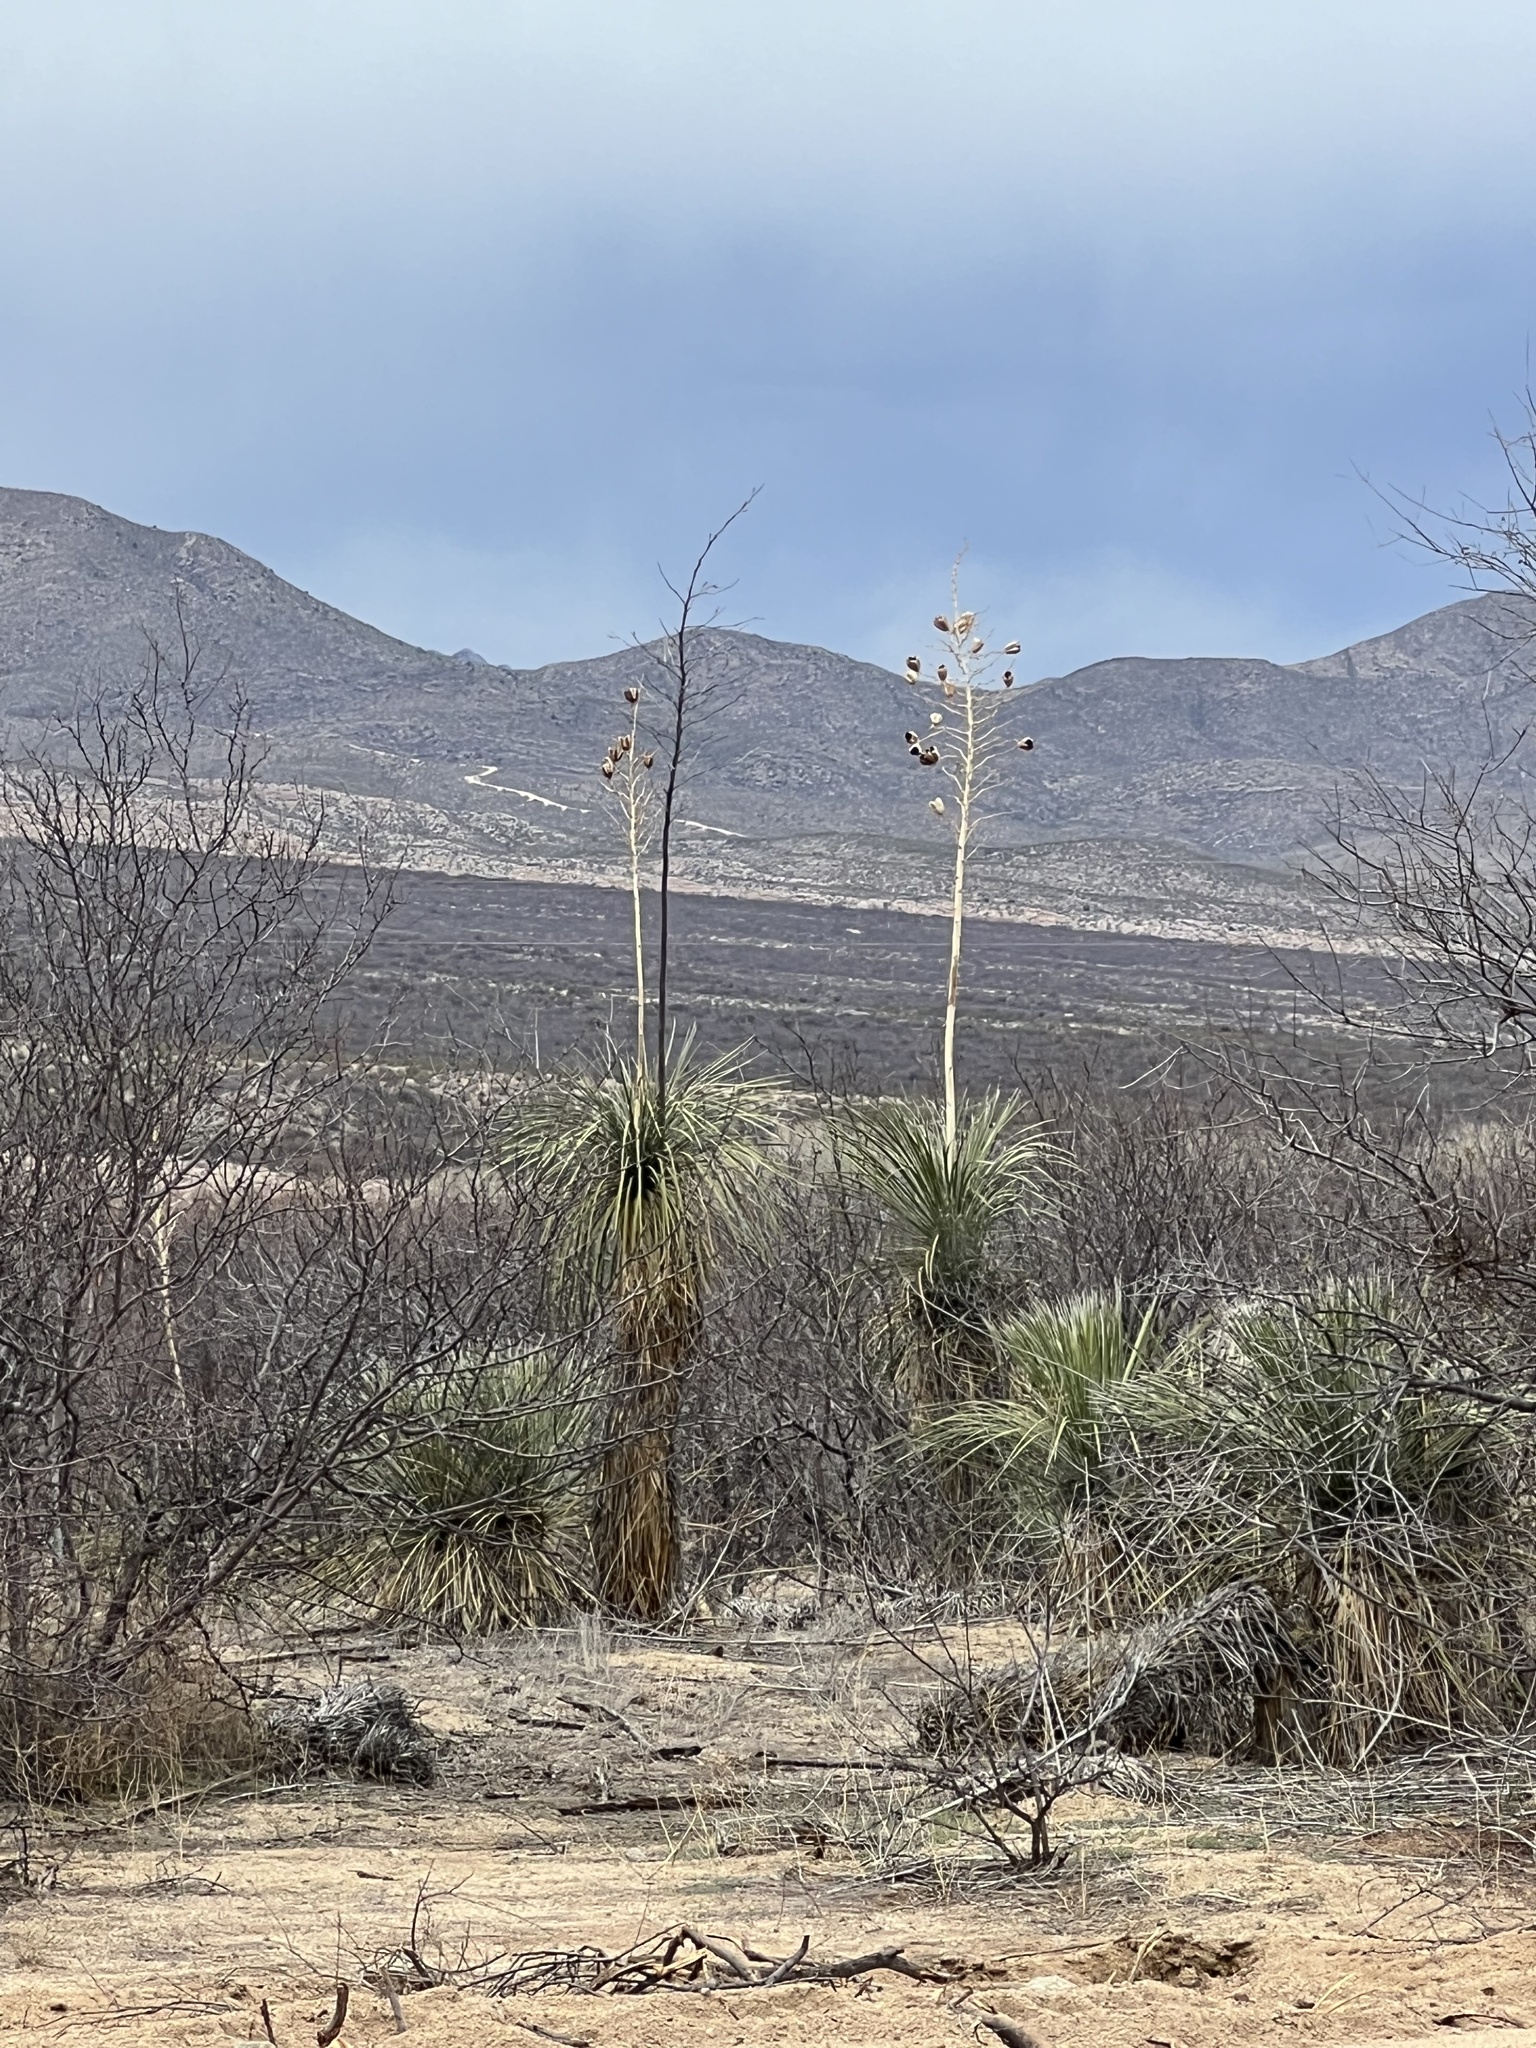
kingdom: Plantae
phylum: Tracheophyta
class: Liliopsida
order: Asparagales
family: Asparagaceae
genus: Yucca
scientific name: Yucca elata
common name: Palmella
